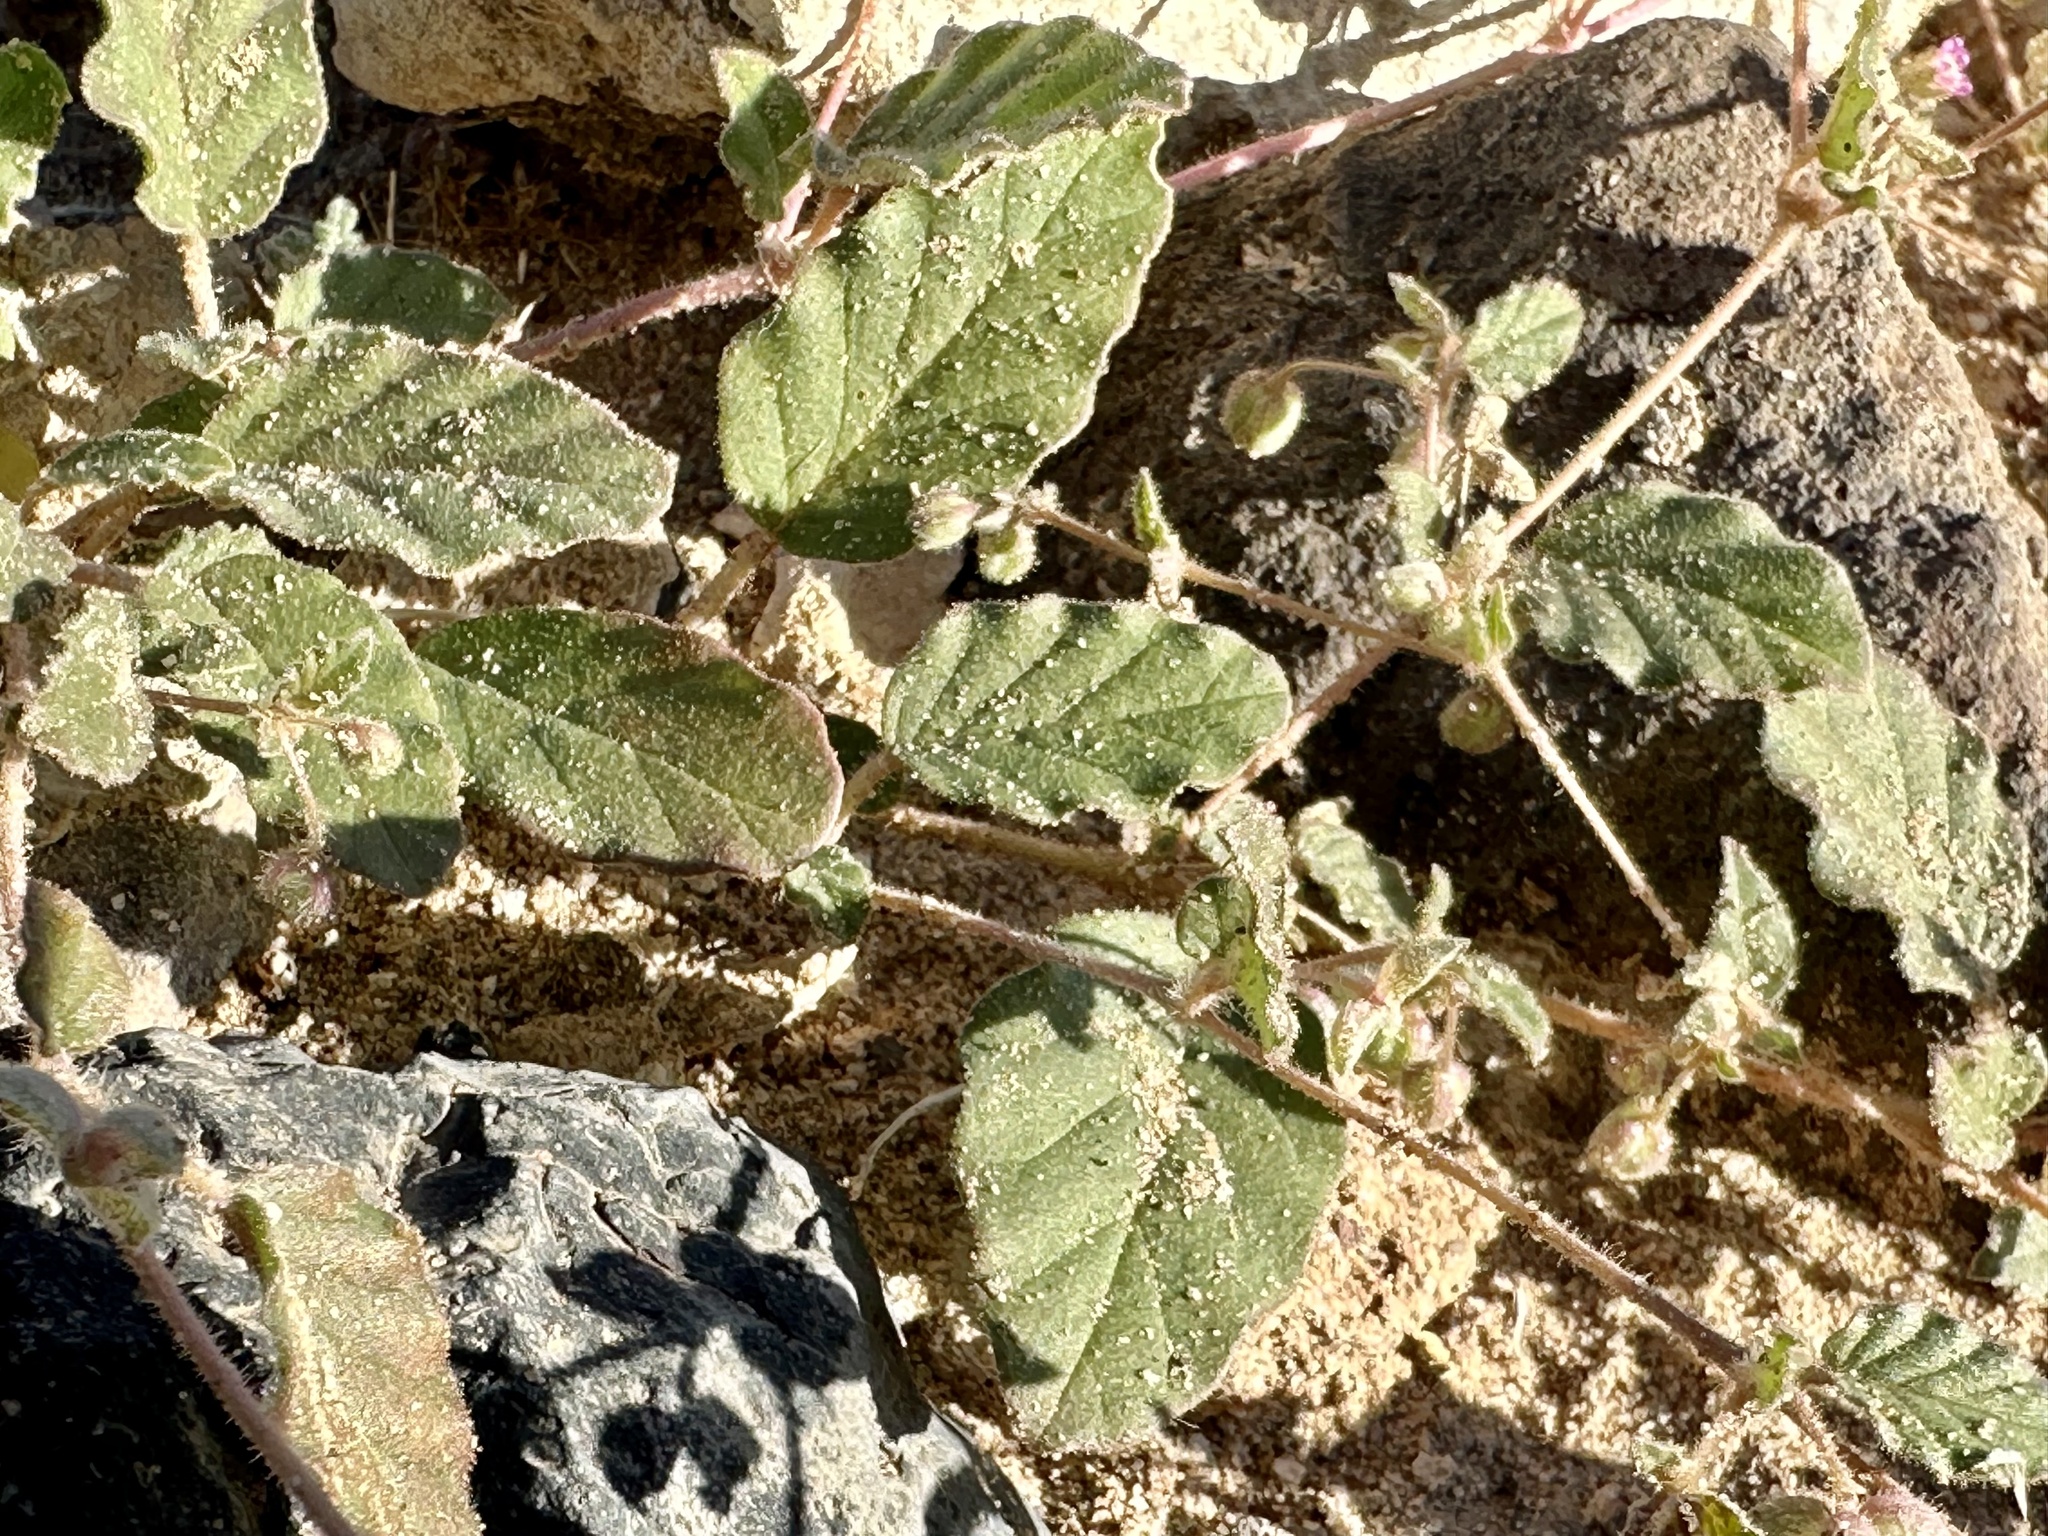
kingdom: Plantae
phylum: Tracheophyta
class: Magnoliopsida
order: Caryophyllales
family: Nyctaginaceae
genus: Allionia
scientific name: Allionia incarnata
